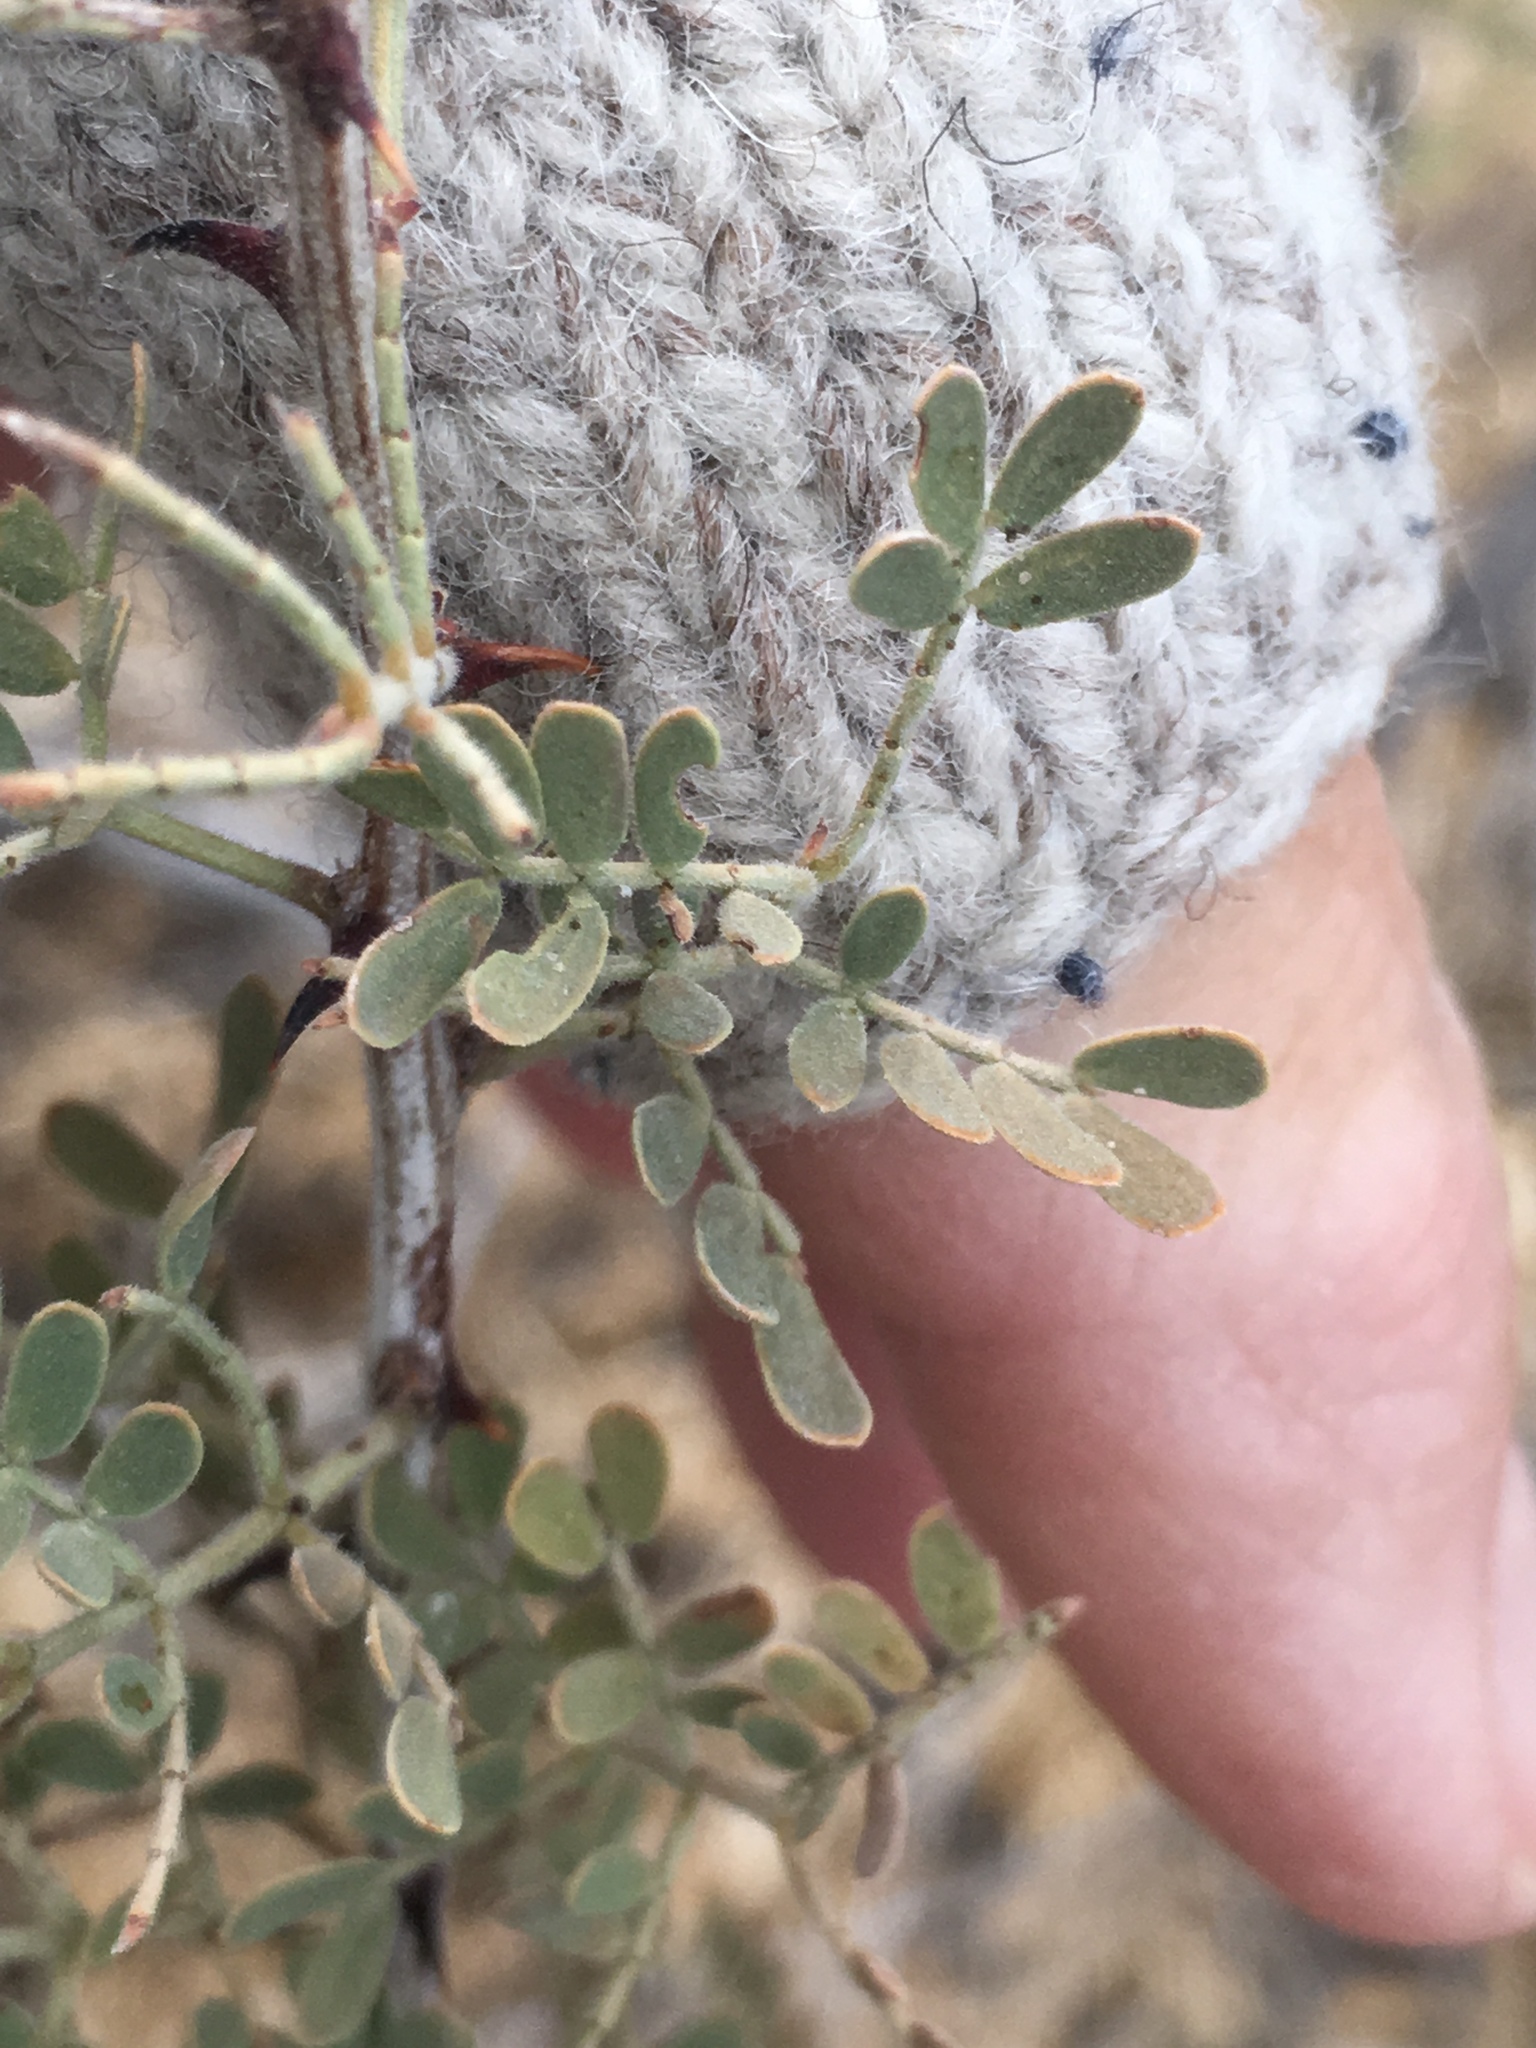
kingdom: Plantae
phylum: Tracheophyta
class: Magnoliopsida
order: Fabales
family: Fabaceae
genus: Senegalia
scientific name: Senegalia greggii
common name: Texas-mimosa
